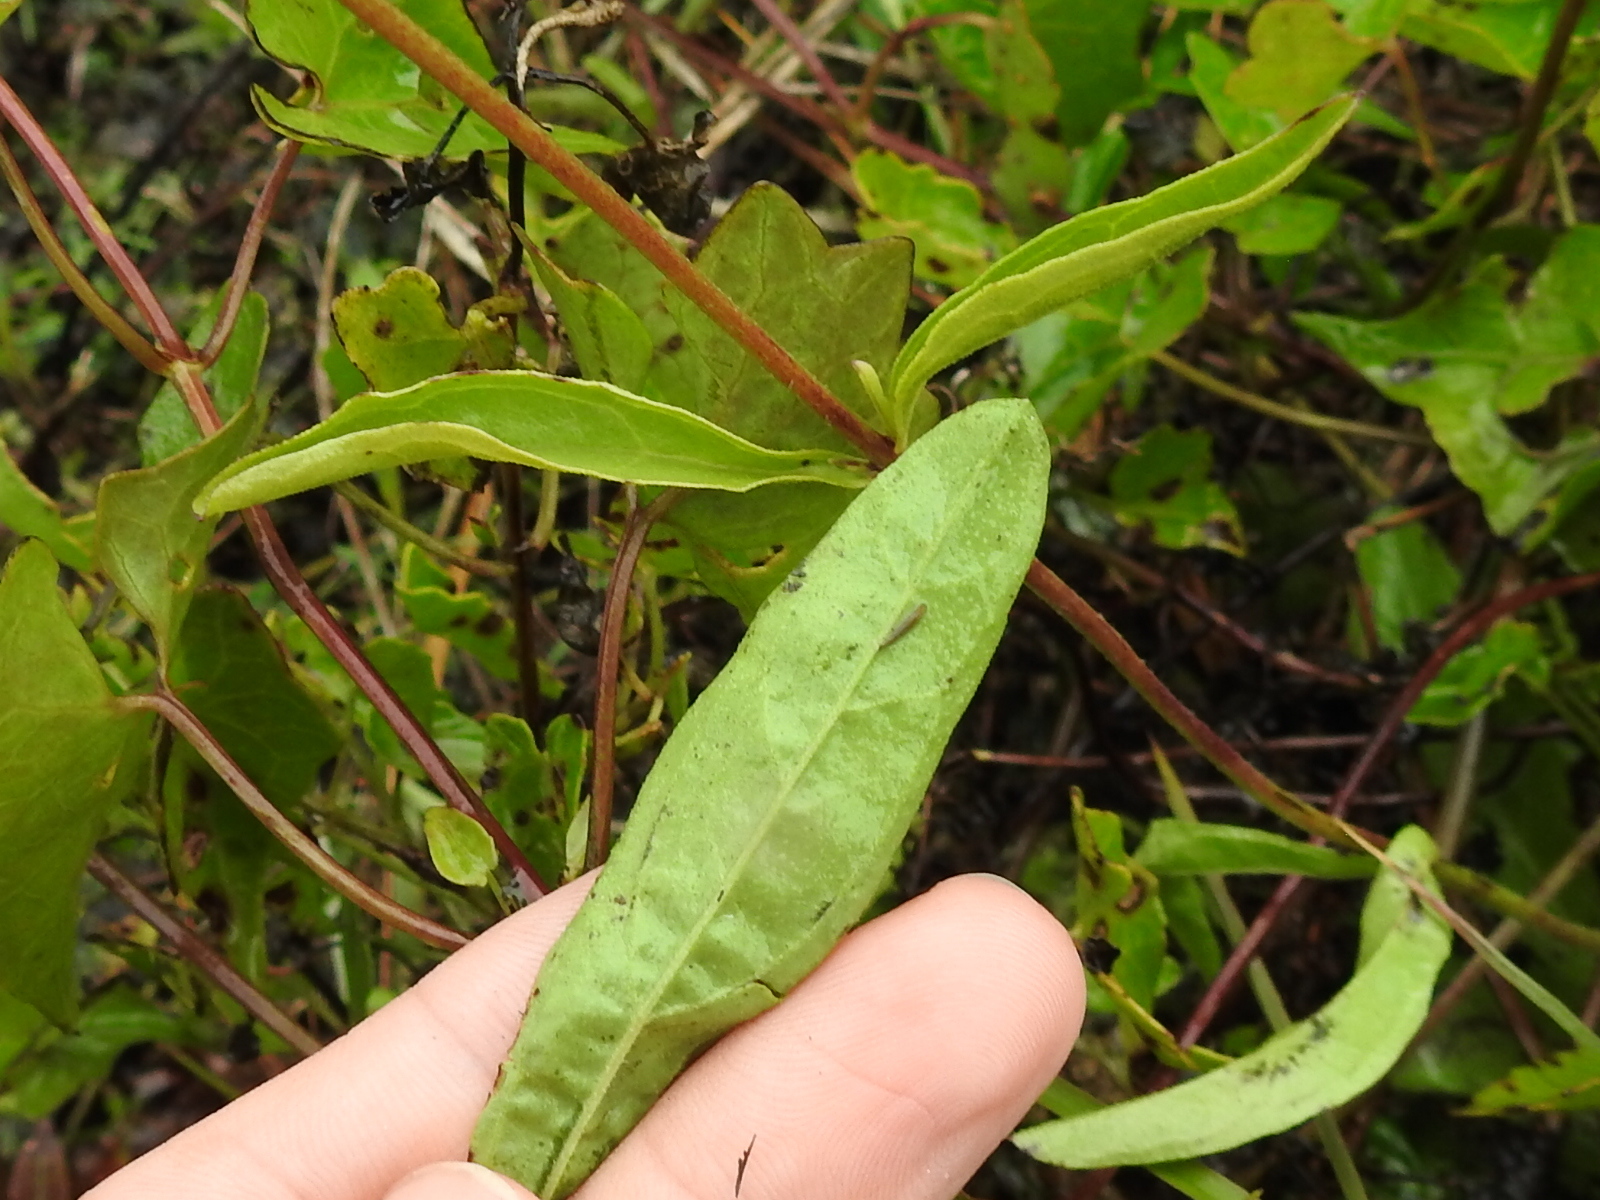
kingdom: Plantae
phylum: Tracheophyta
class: Magnoliopsida
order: Lamiales
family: Orobanchaceae
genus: Buchnera
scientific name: Buchnera floridana
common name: Florida bluehearts
